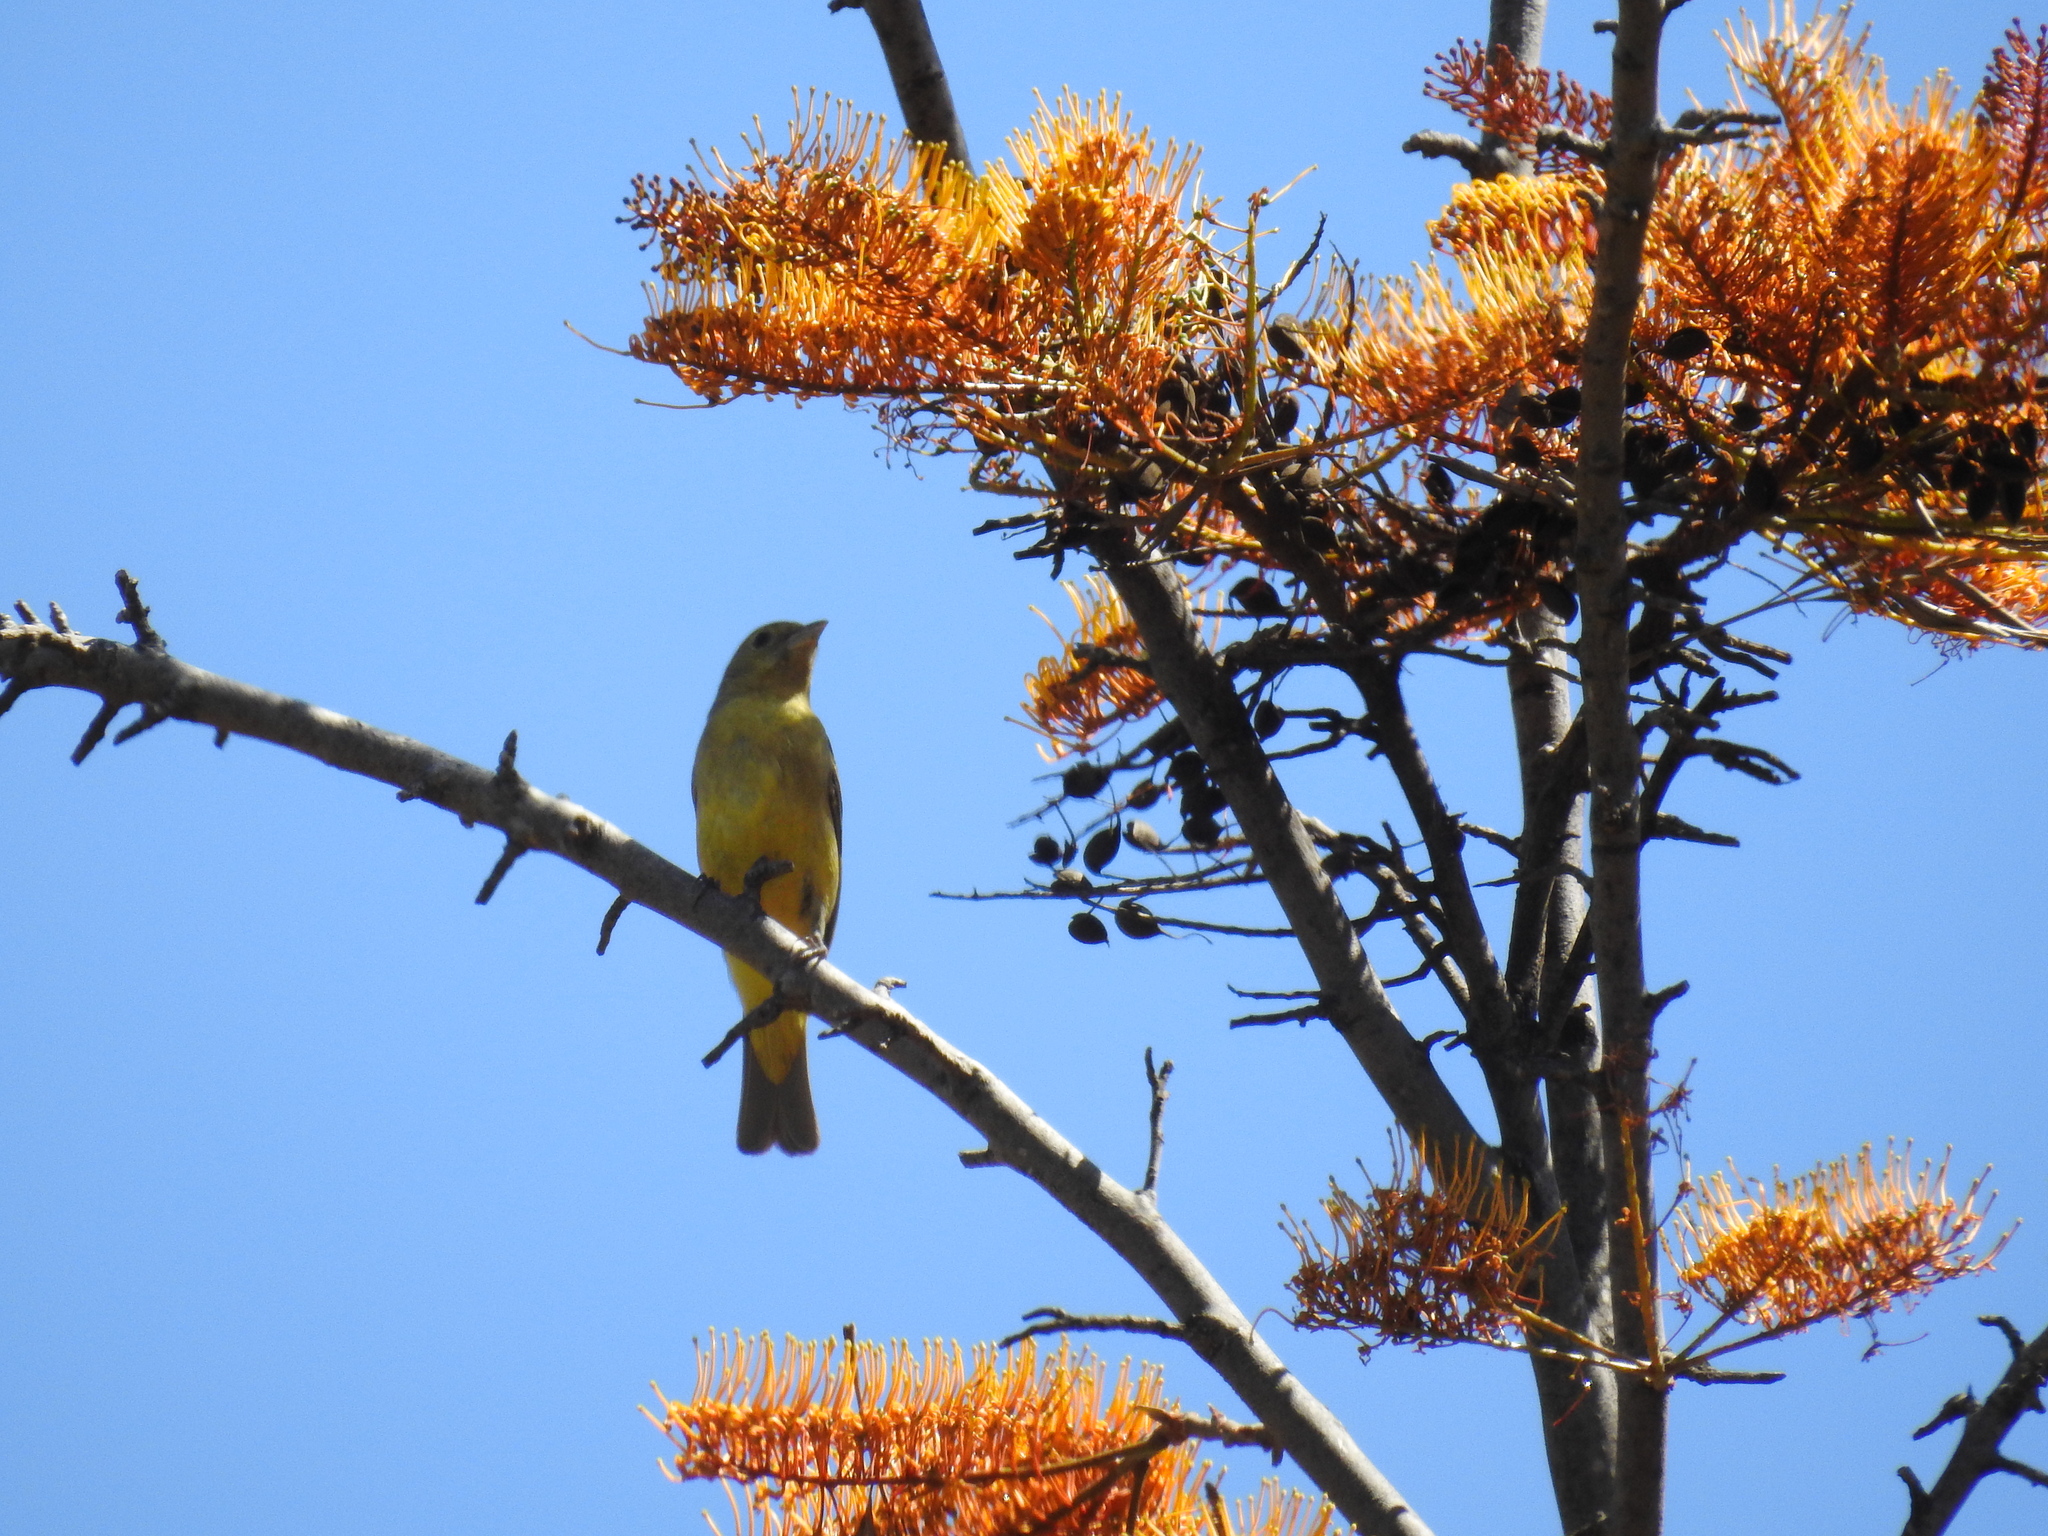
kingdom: Animalia
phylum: Chordata
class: Aves
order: Passeriformes
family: Cardinalidae
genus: Piranga
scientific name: Piranga ludoviciana
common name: Western tanager
